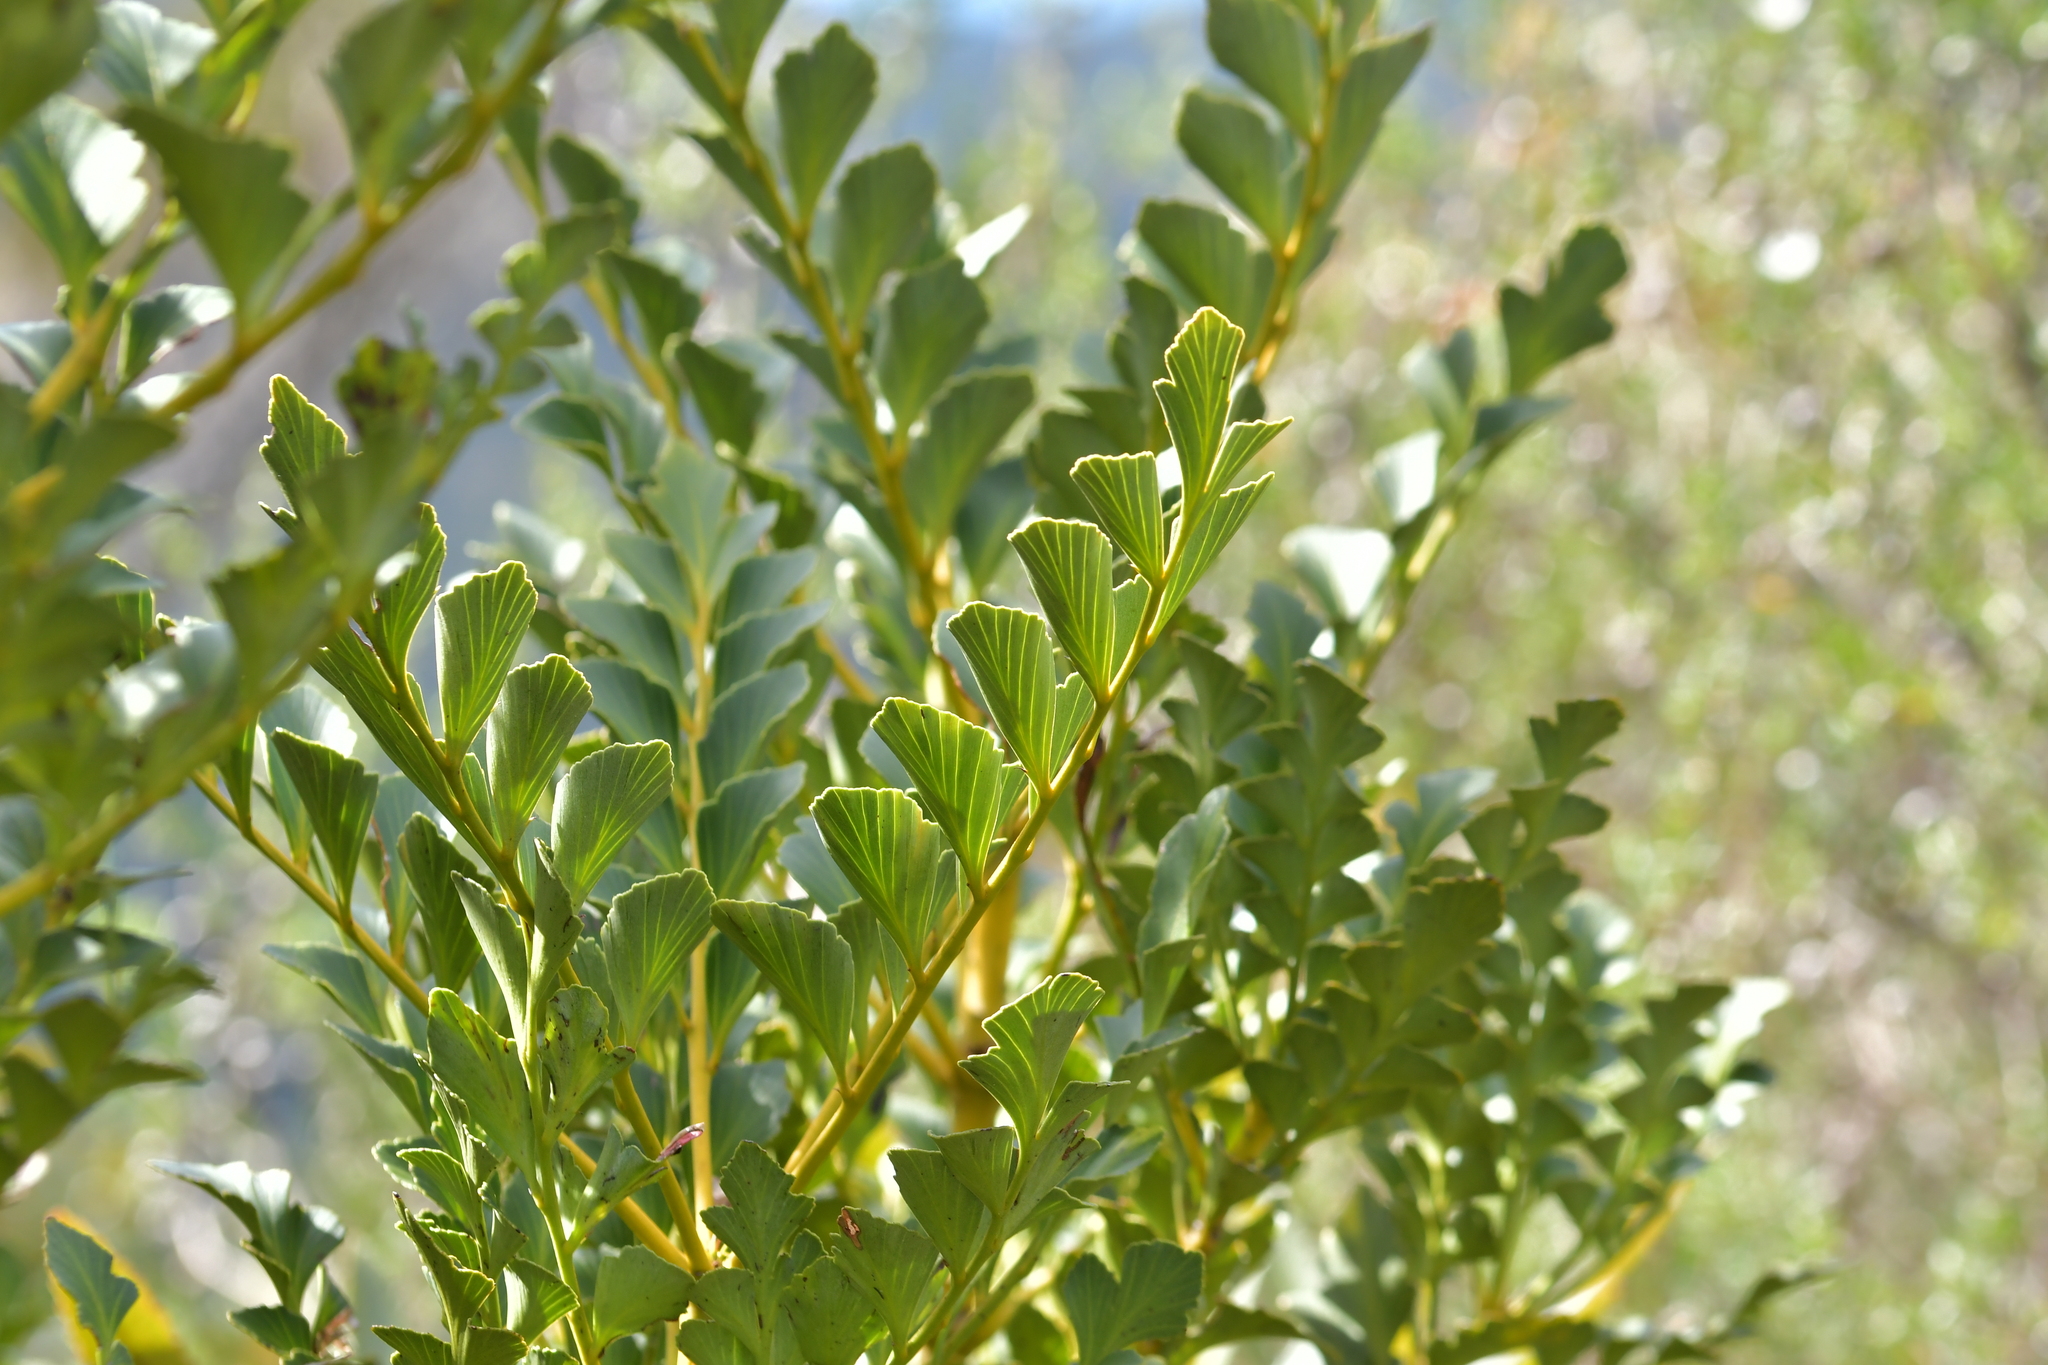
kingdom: Plantae
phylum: Tracheophyta
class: Pinopsida
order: Pinales
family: Phyllocladaceae
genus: Phyllocladus
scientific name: Phyllocladus toatoa
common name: Celery-top pine
